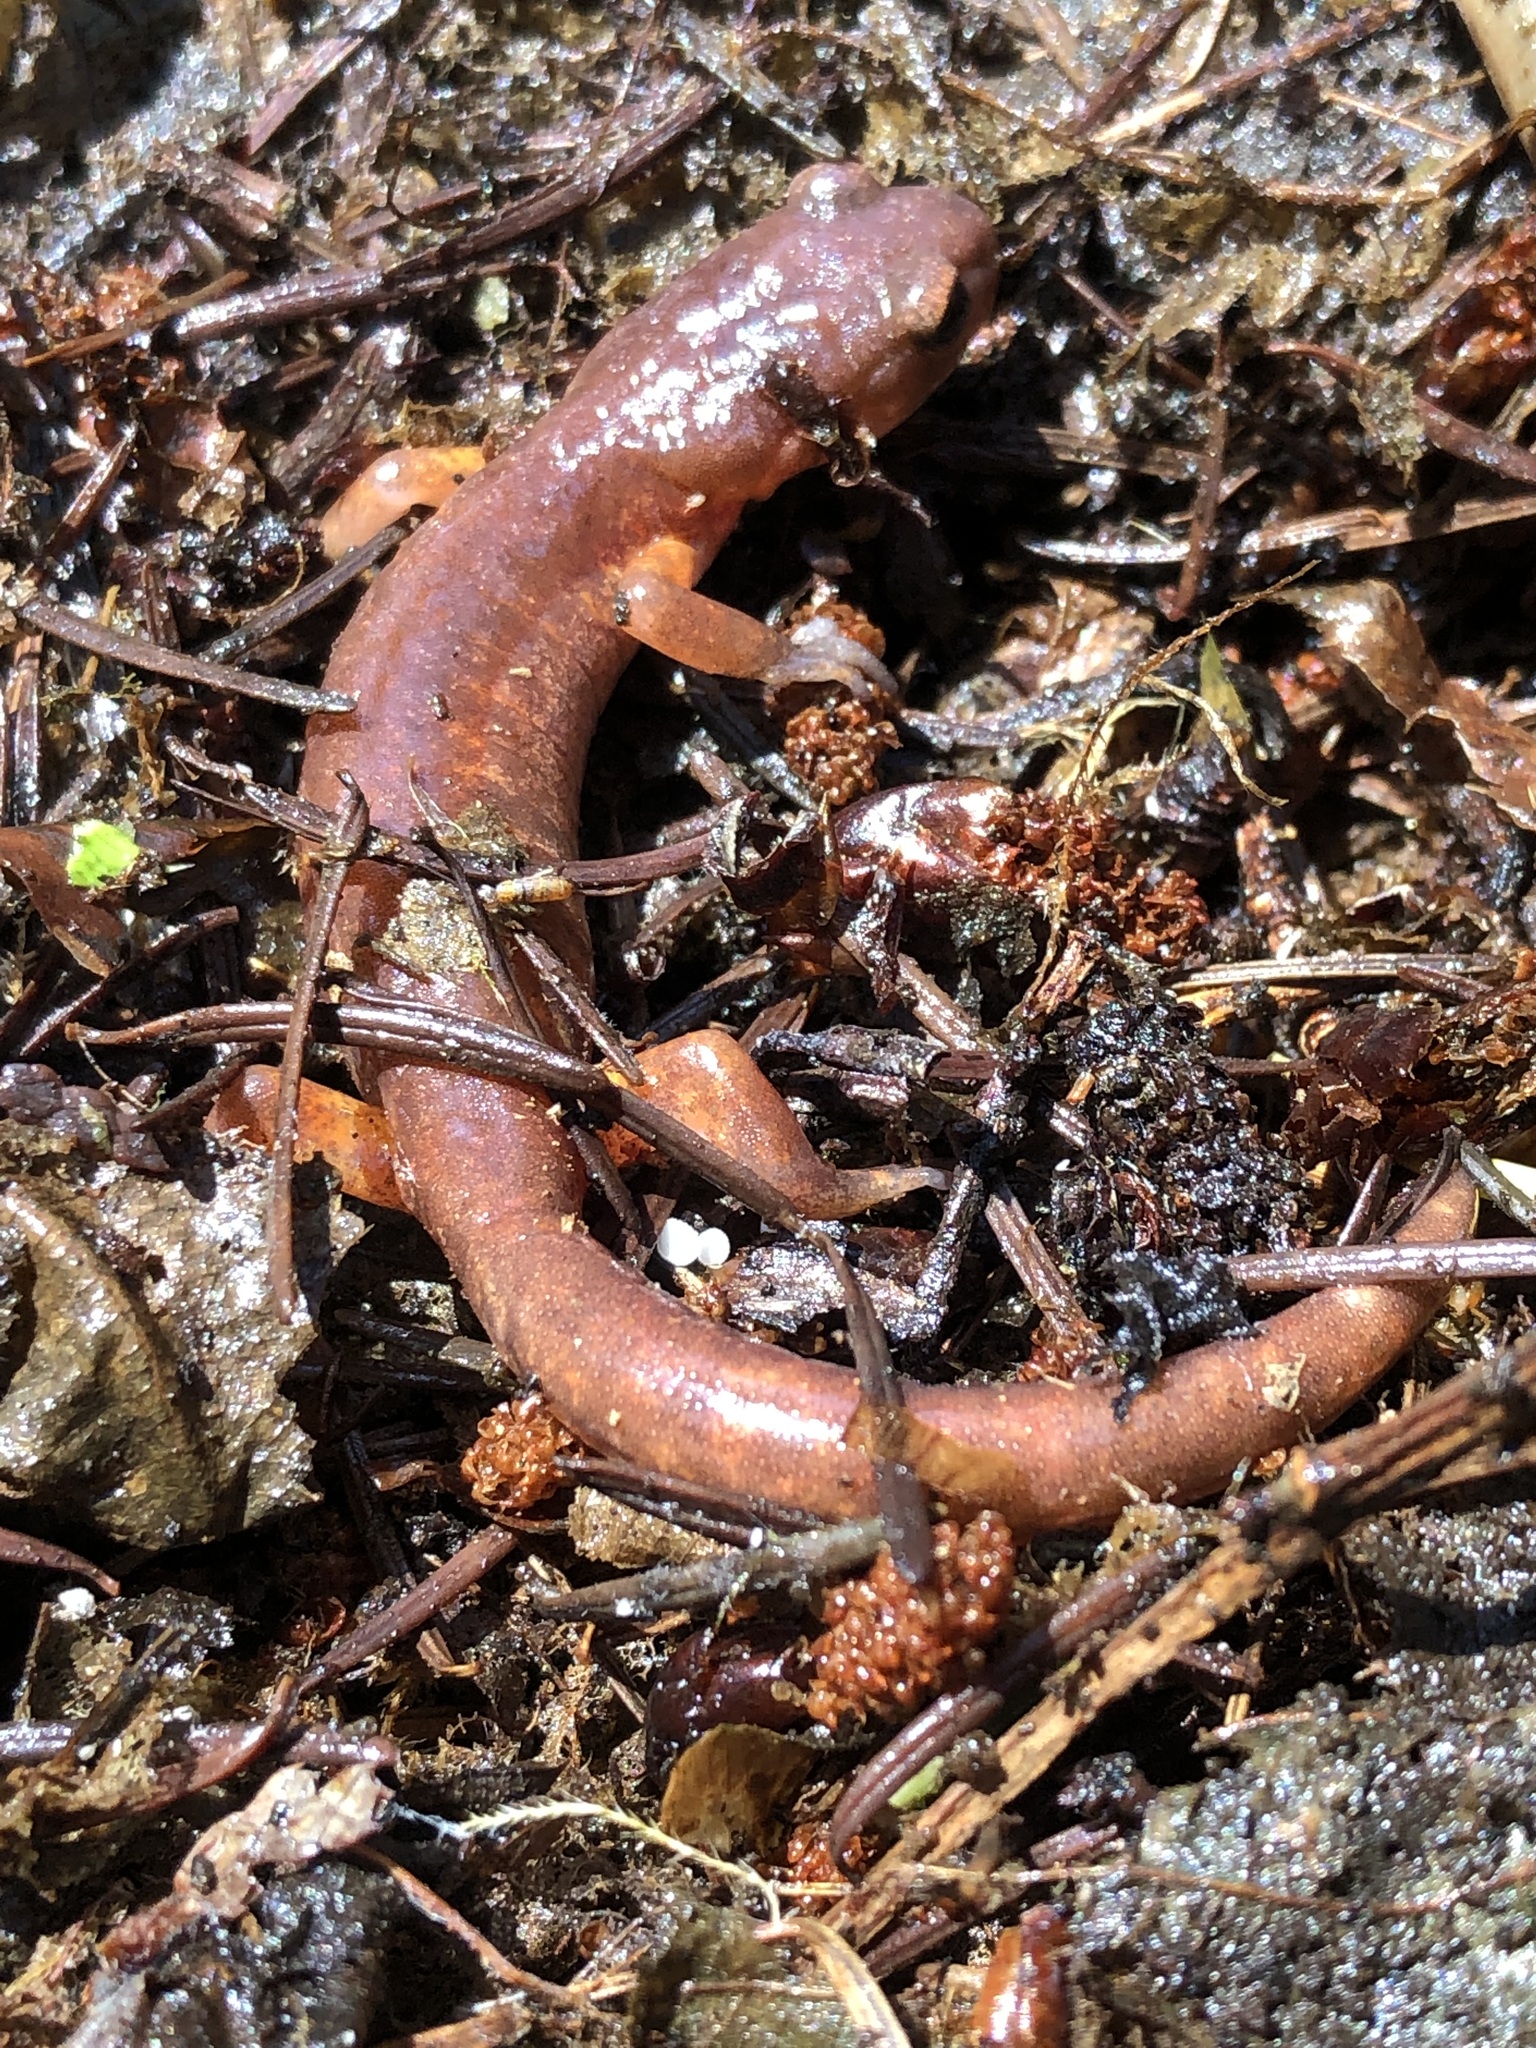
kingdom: Animalia
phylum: Chordata
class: Amphibia
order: Caudata
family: Plethodontidae
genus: Ensatina
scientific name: Ensatina eschscholtzii
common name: Ensatina
